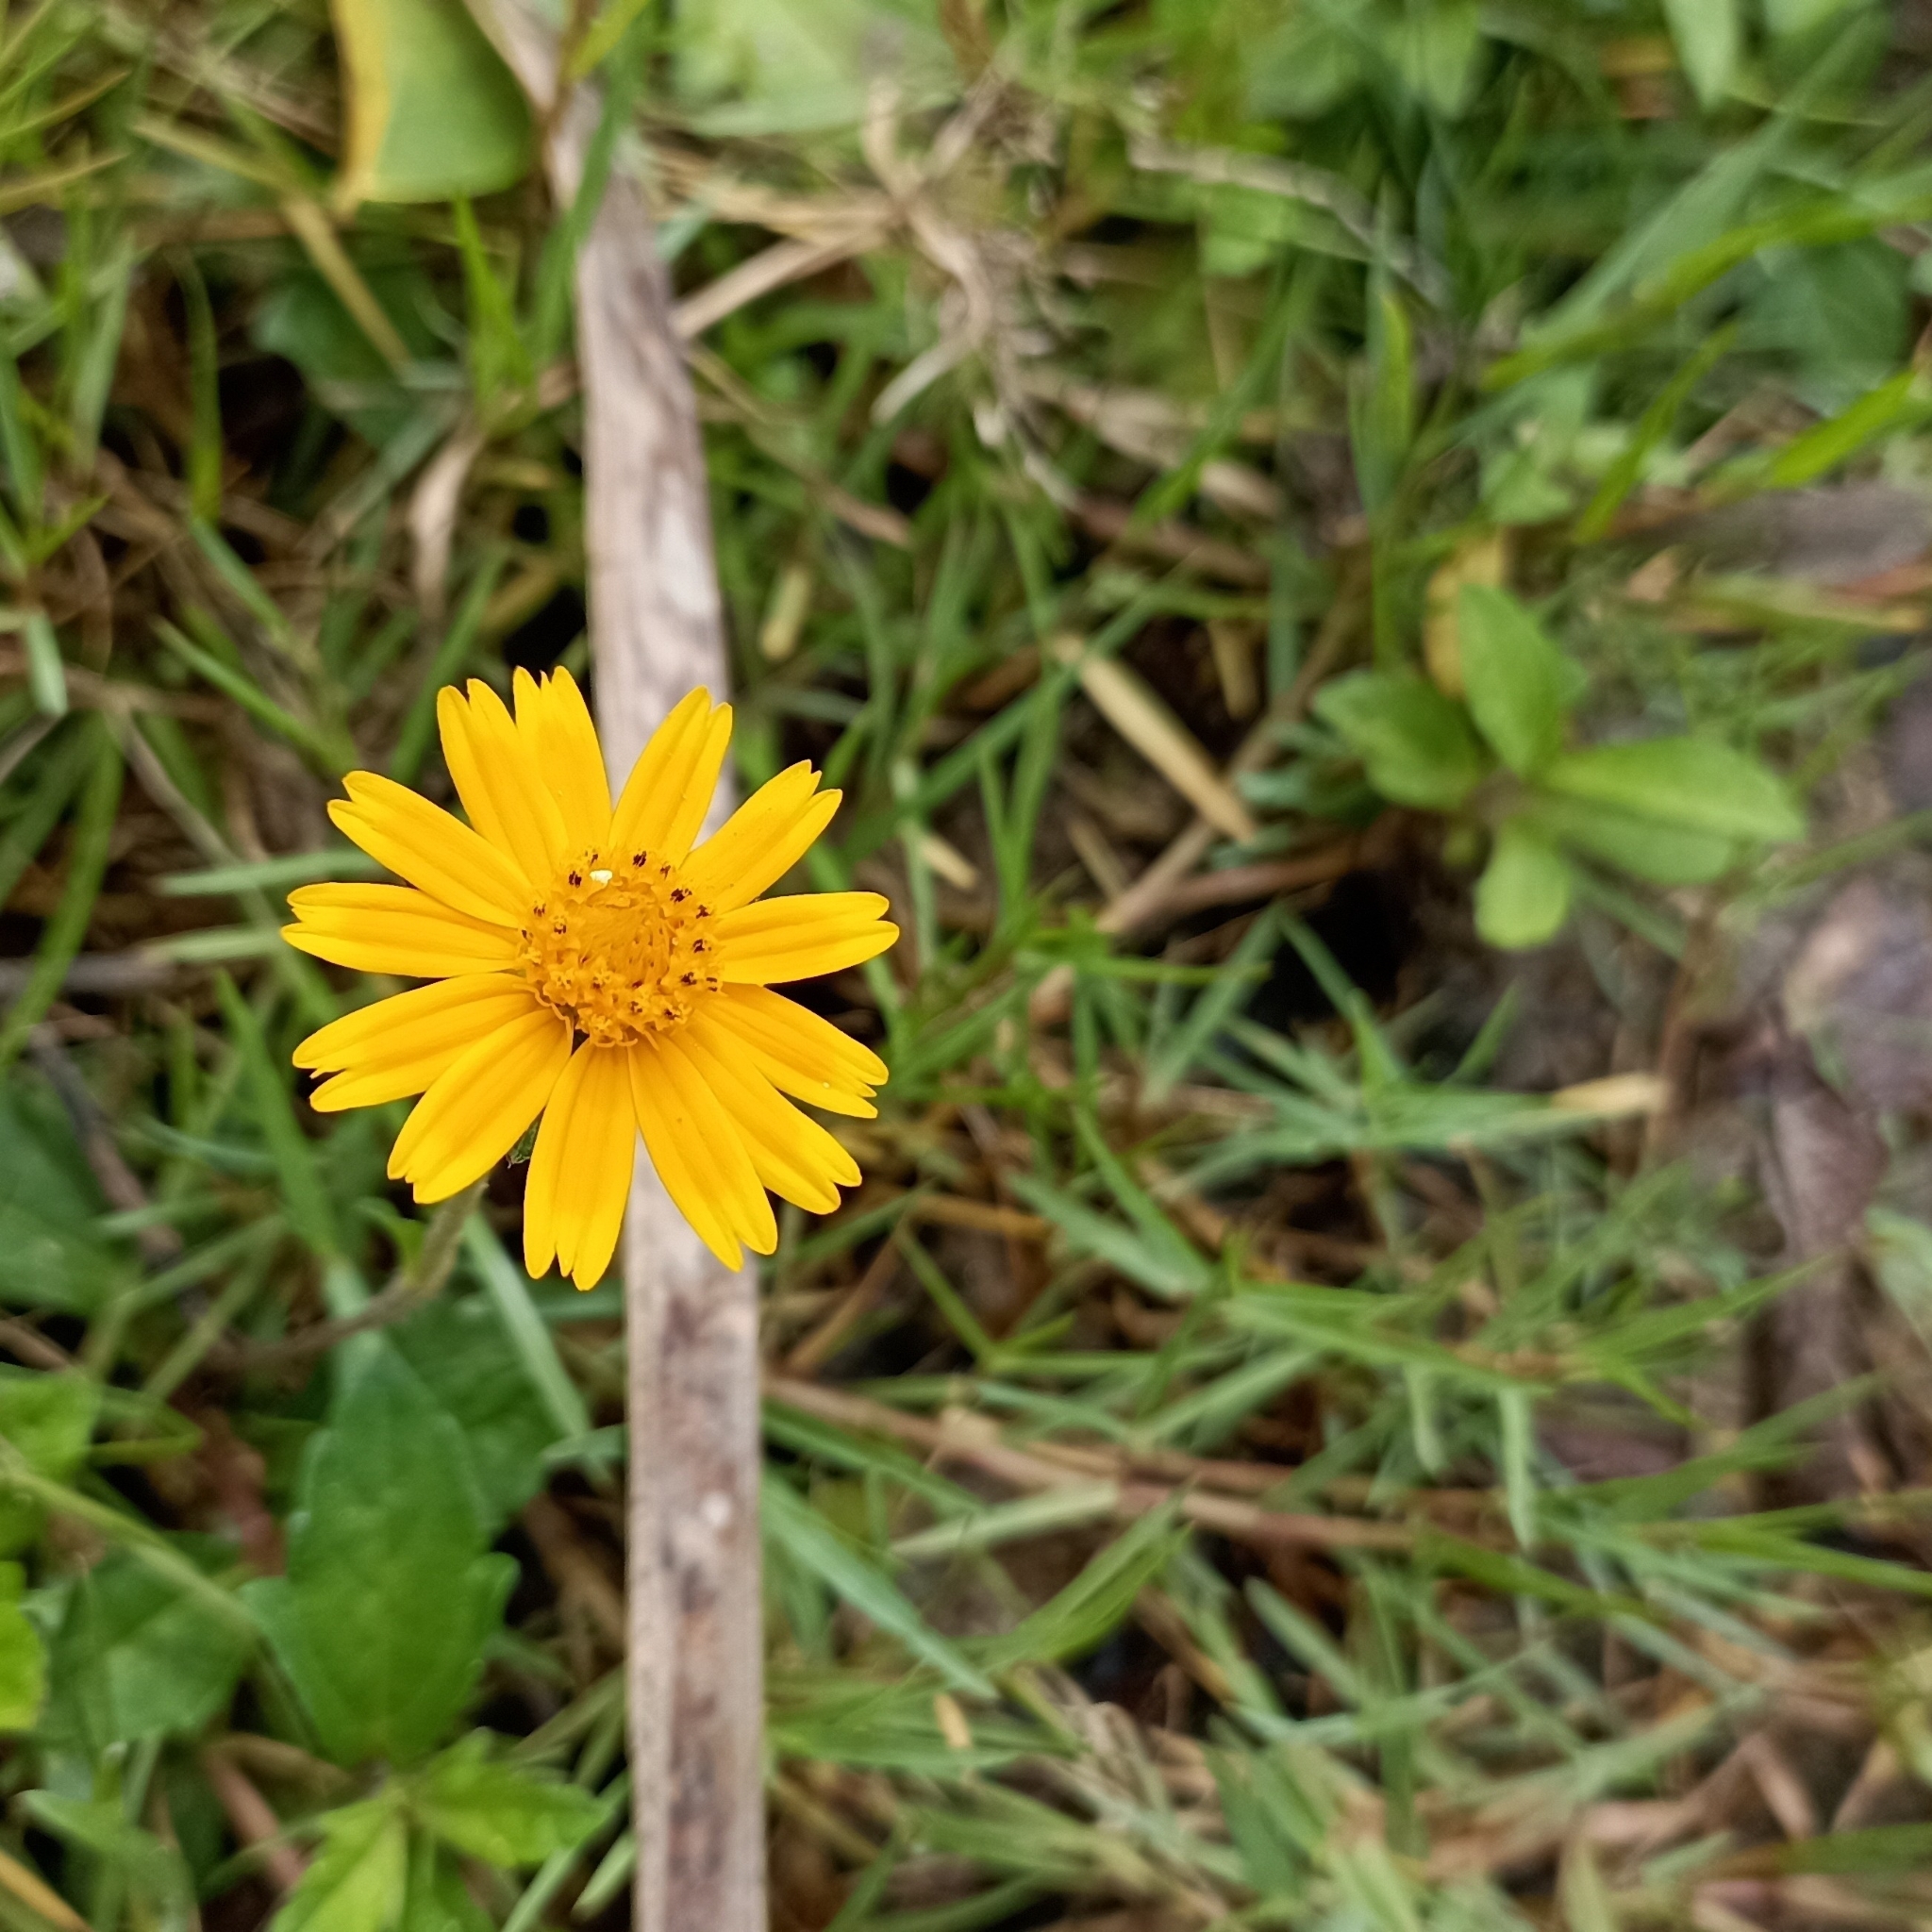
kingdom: Plantae
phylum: Tracheophyta
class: Magnoliopsida
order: Asterales
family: Asteraceae
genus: Sphagneticola
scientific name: Sphagneticola trilobata
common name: Bay biscayne creeping-oxeye
